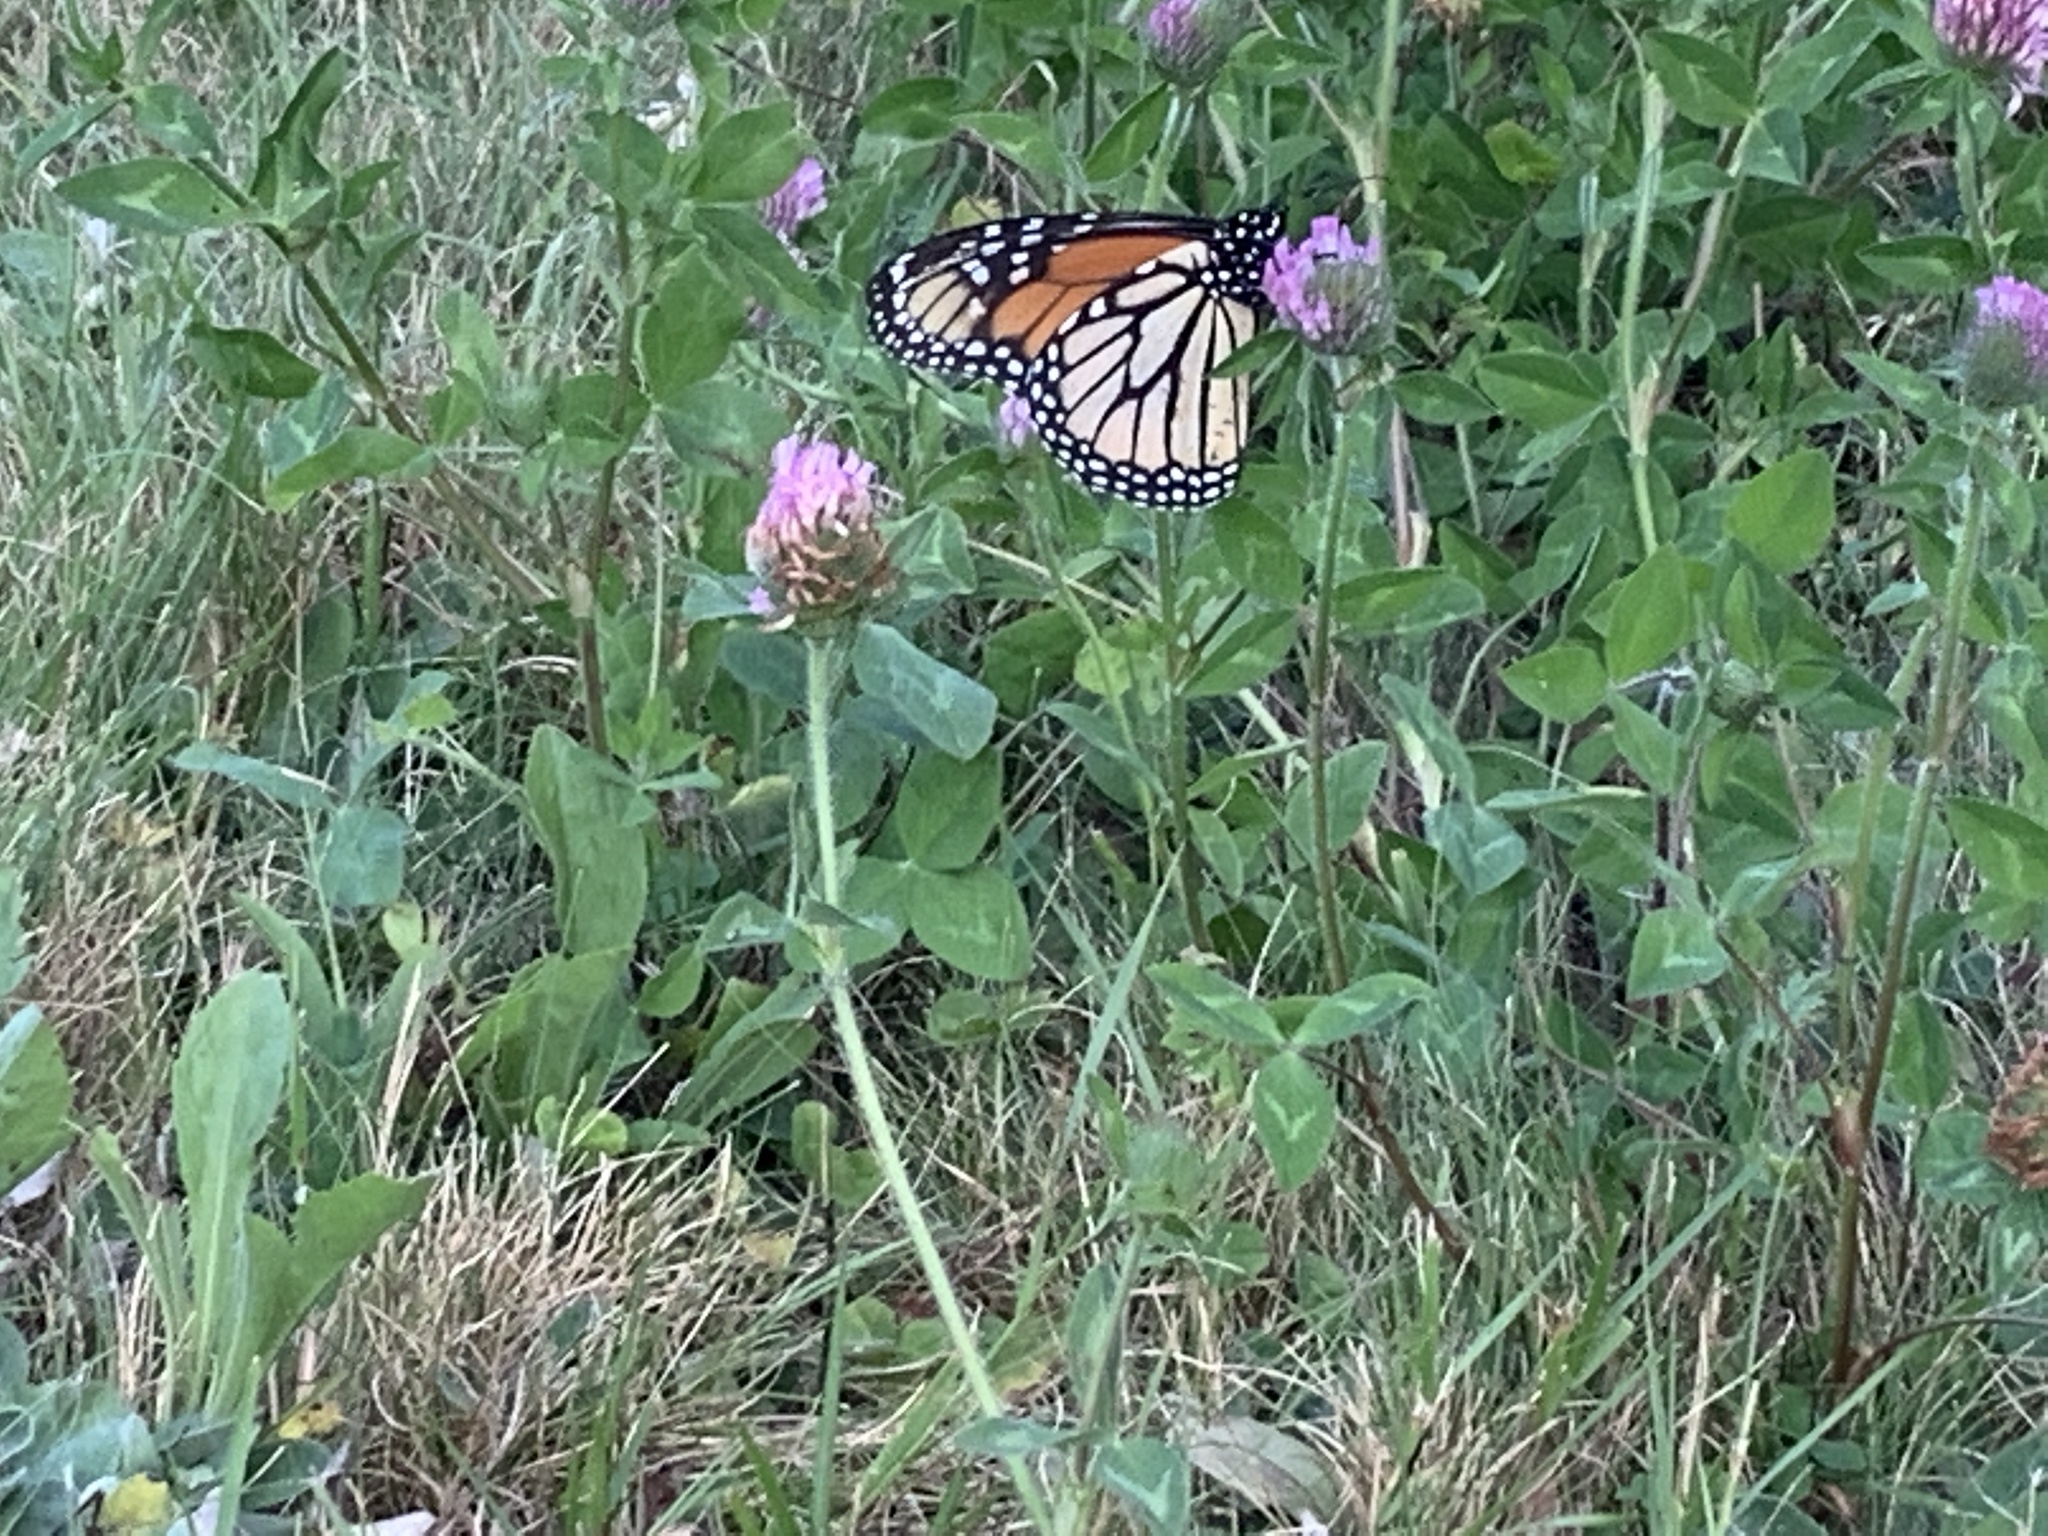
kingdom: Animalia
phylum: Arthropoda
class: Insecta
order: Lepidoptera
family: Nymphalidae
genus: Danaus
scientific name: Danaus plexippus
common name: Monarch
